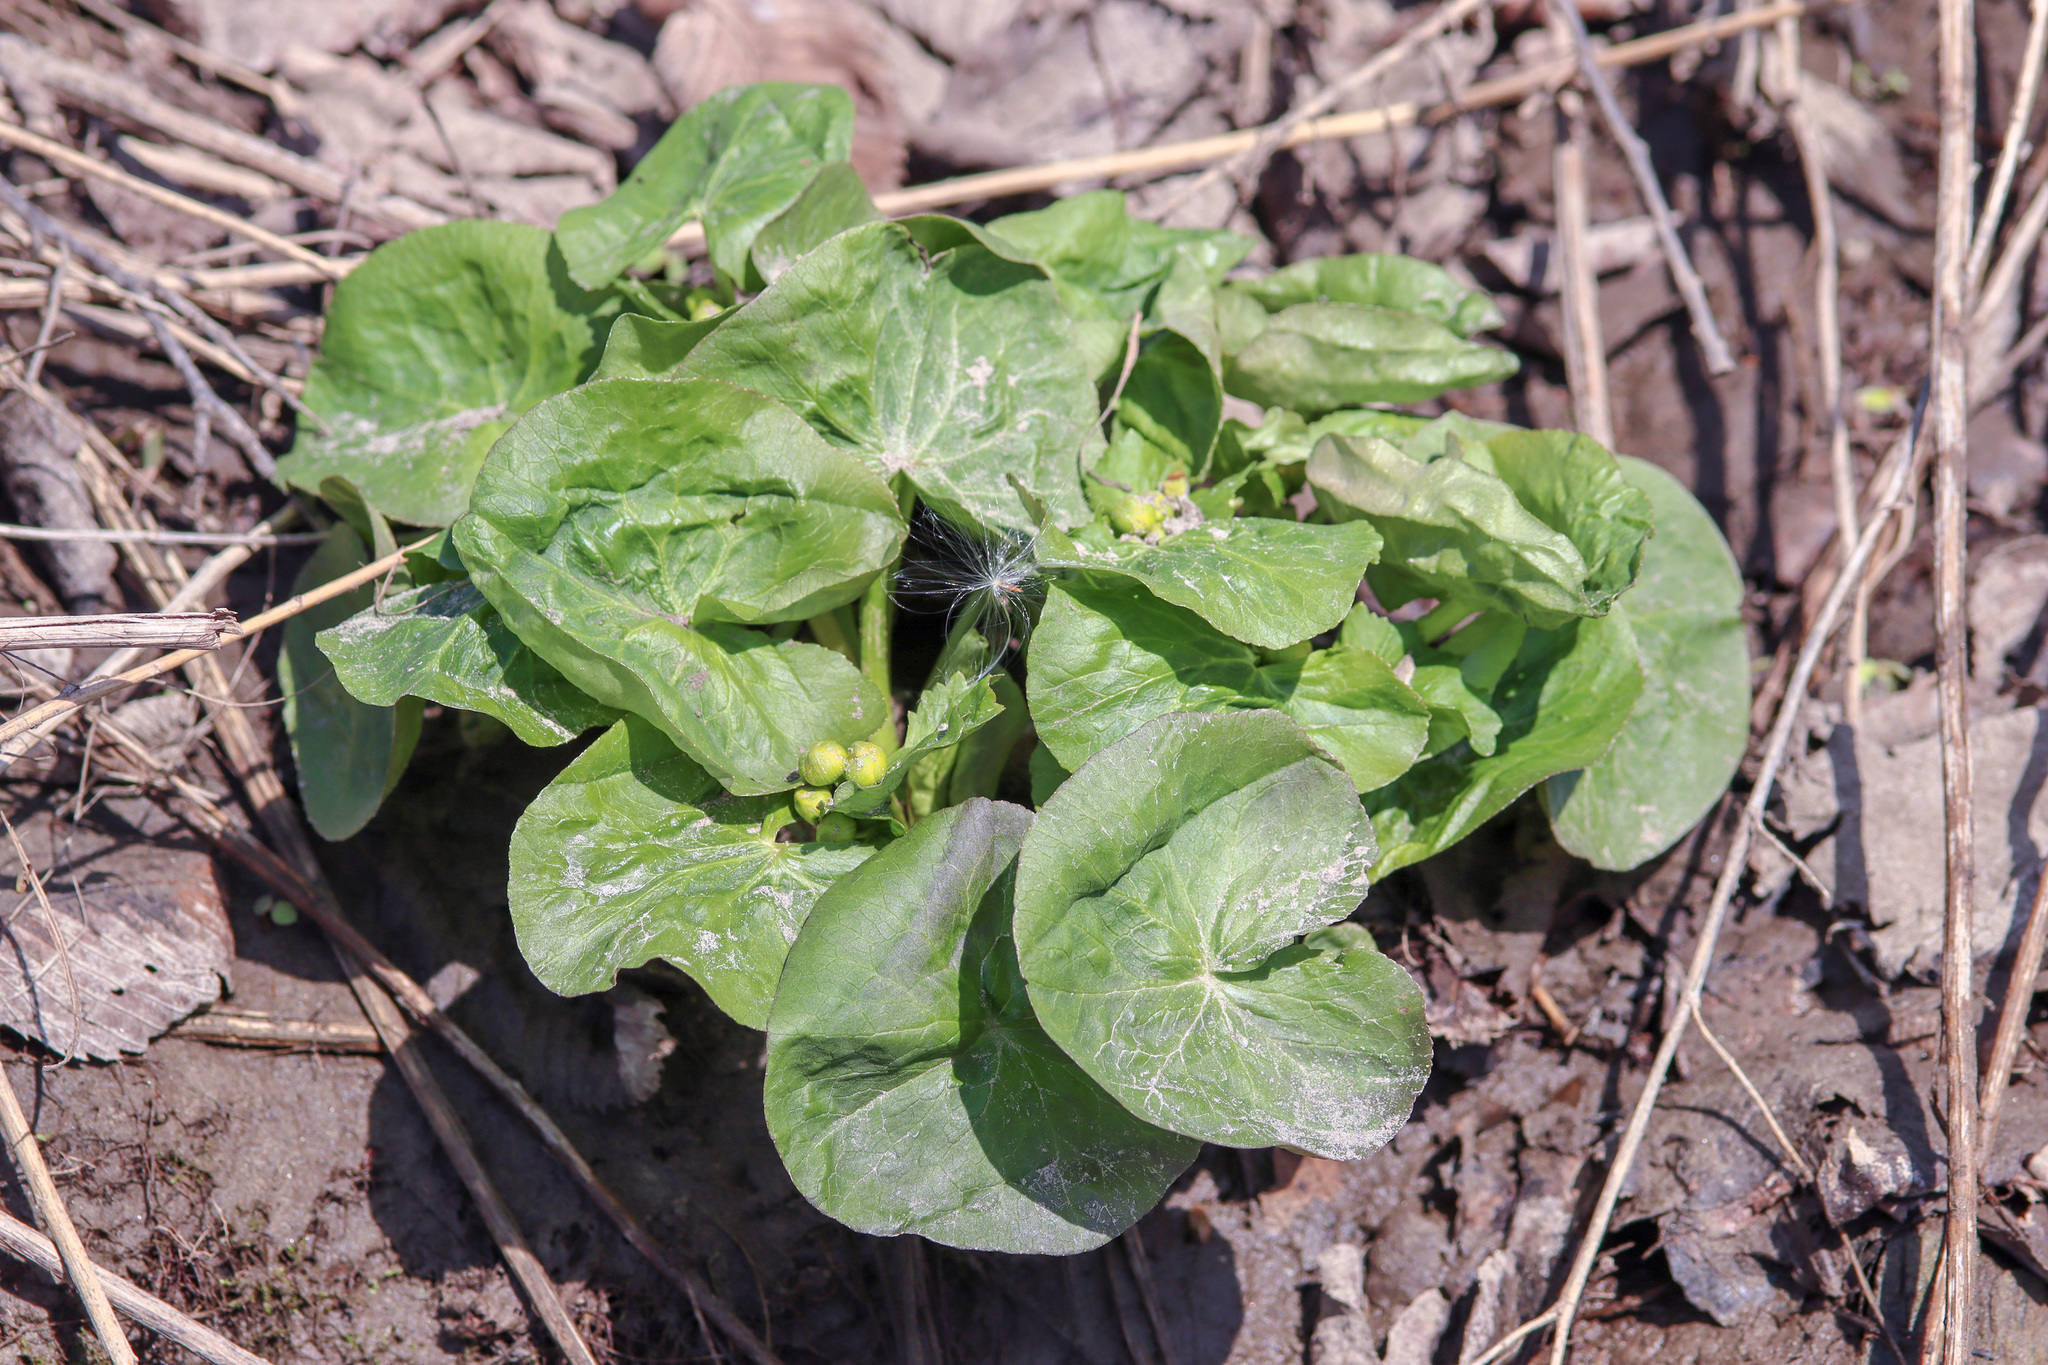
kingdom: Plantae
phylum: Tracheophyta
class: Magnoliopsida
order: Ranunculales
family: Ranunculaceae
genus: Caltha
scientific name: Caltha palustris
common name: Marsh marigold
